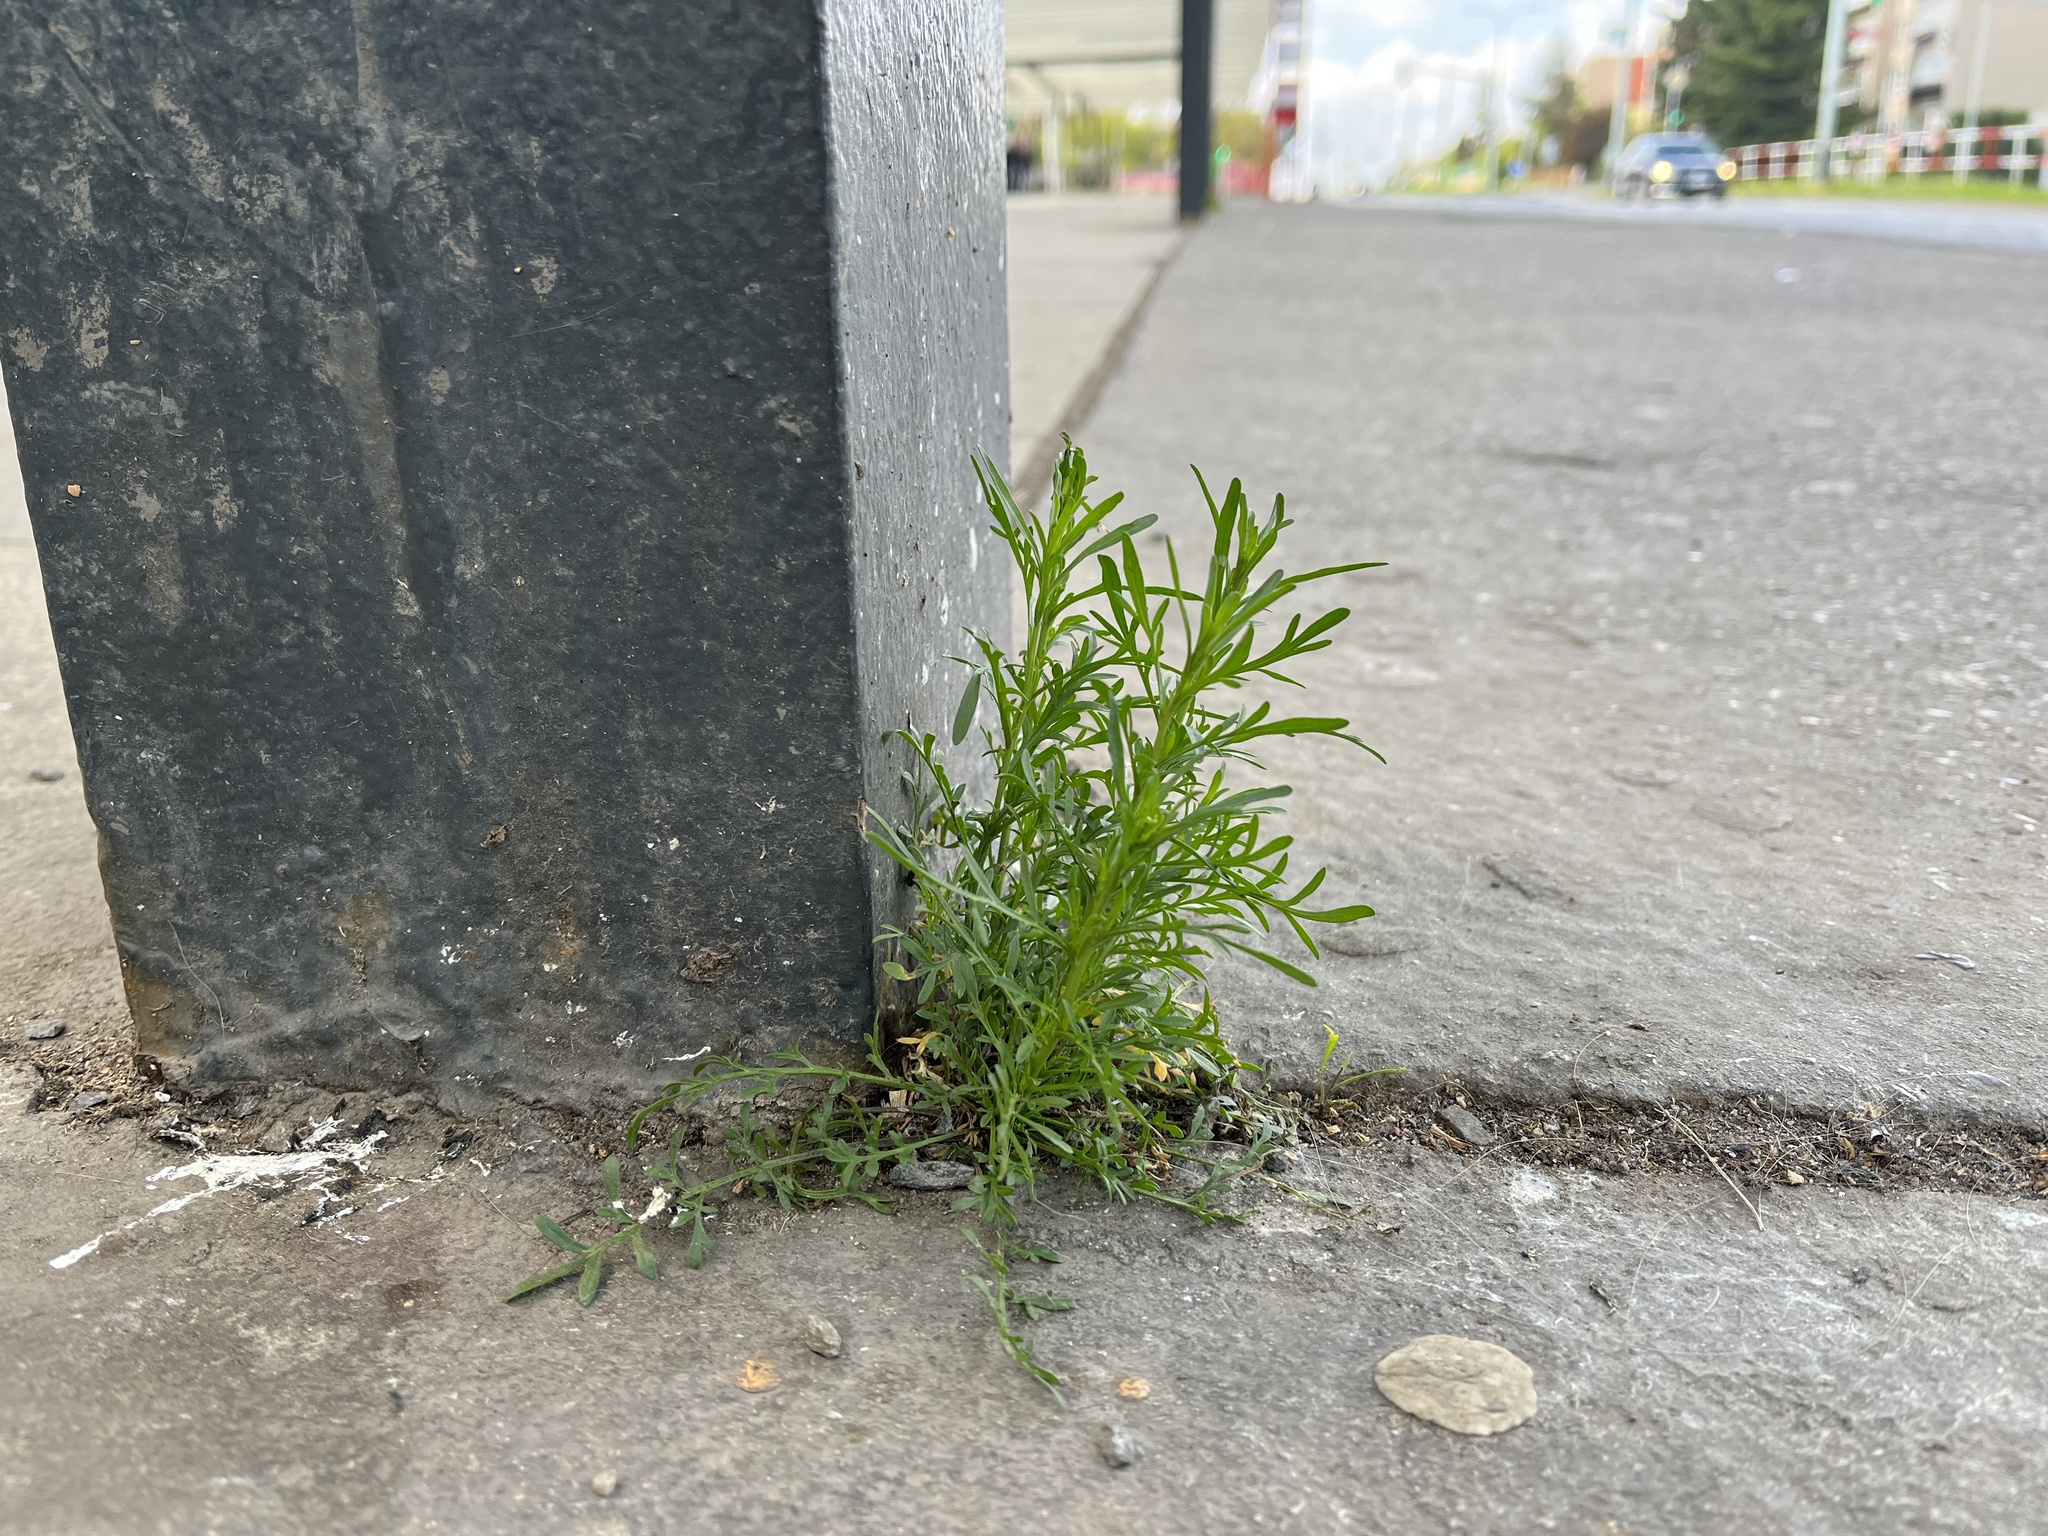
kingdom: Plantae
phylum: Tracheophyta
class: Magnoliopsida
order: Brassicales
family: Brassicaceae
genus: Lepidium
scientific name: Lepidium ruderale
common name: Narrow-leaved pepperwort
